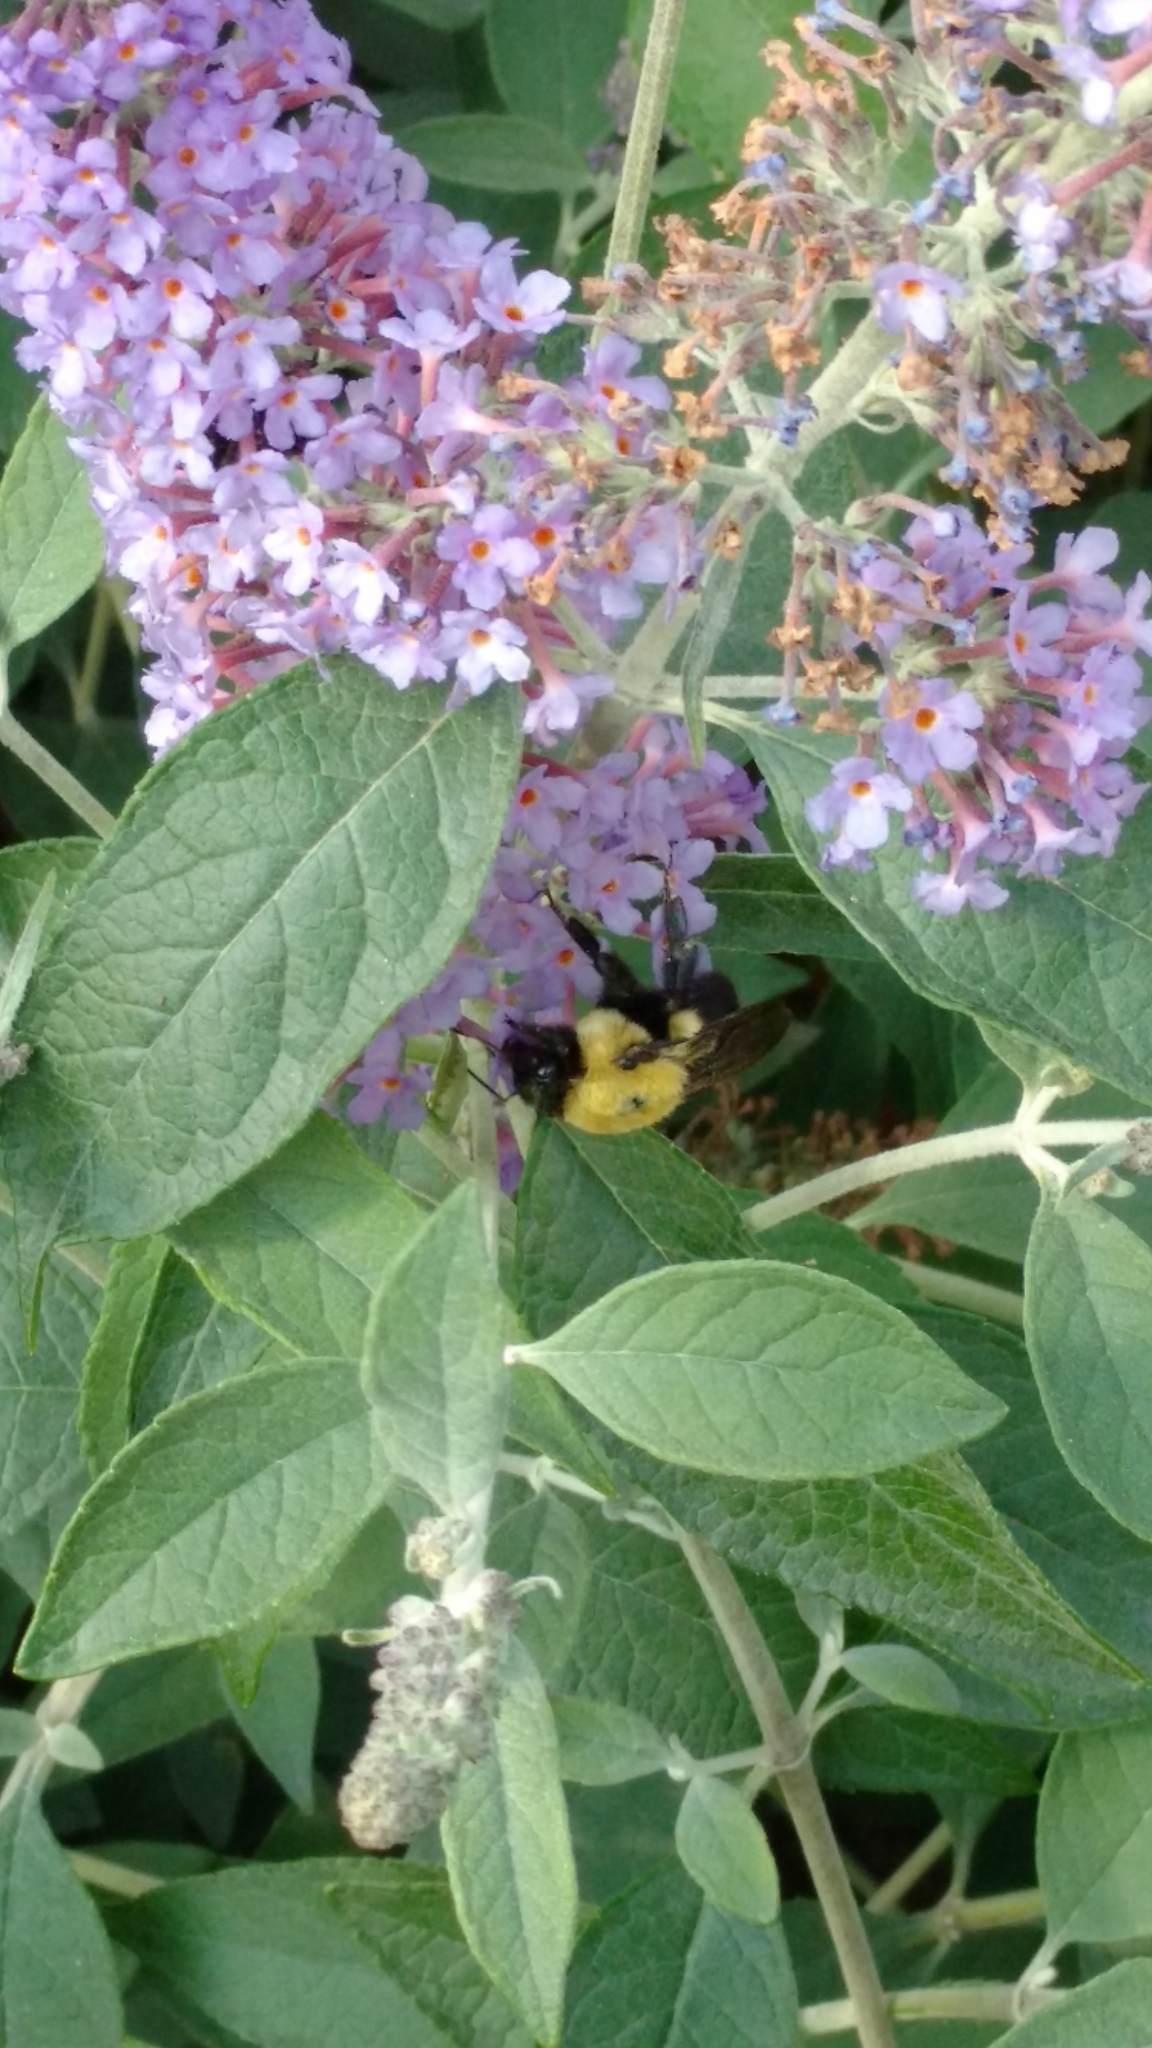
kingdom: Animalia
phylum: Arthropoda
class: Insecta
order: Hymenoptera
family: Apidae
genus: Bombus
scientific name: Bombus griseocollis
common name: Brown-belted bumble bee
